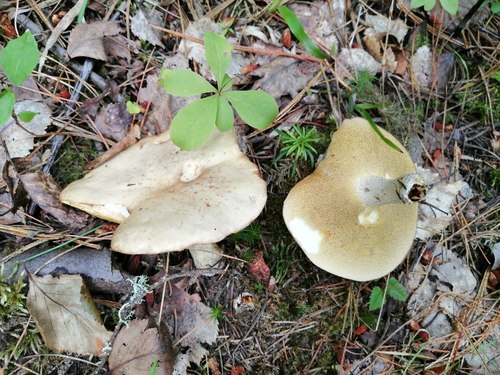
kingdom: Fungi
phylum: Basidiomycota
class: Agaricomycetes
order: Boletales
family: Suillaceae
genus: Suillus
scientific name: Suillus placidus
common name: Slippery white bolete
